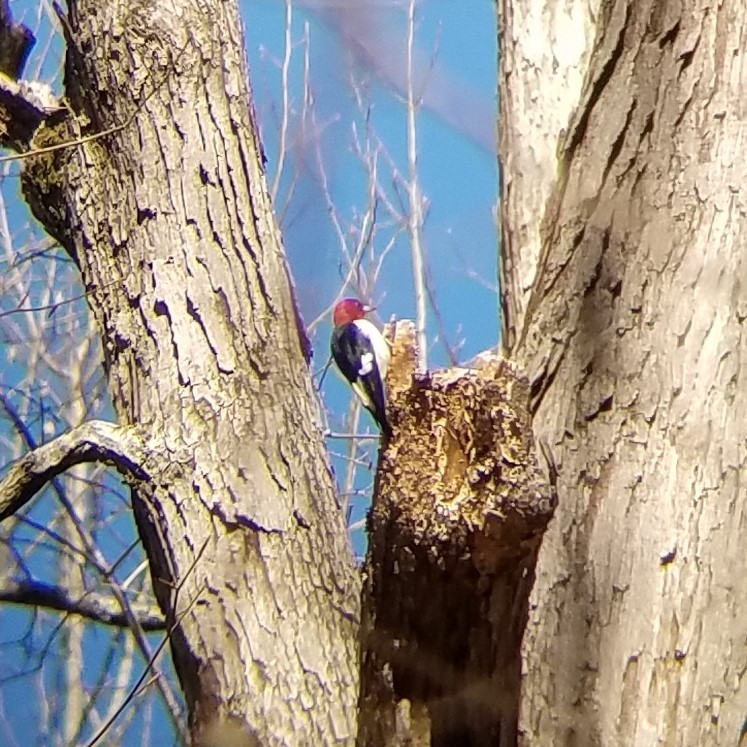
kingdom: Animalia
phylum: Chordata
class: Aves
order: Piciformes
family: Picidae
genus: Melanerpes
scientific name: Melanerpes erythrocephalus
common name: Red-headed woodpecker
